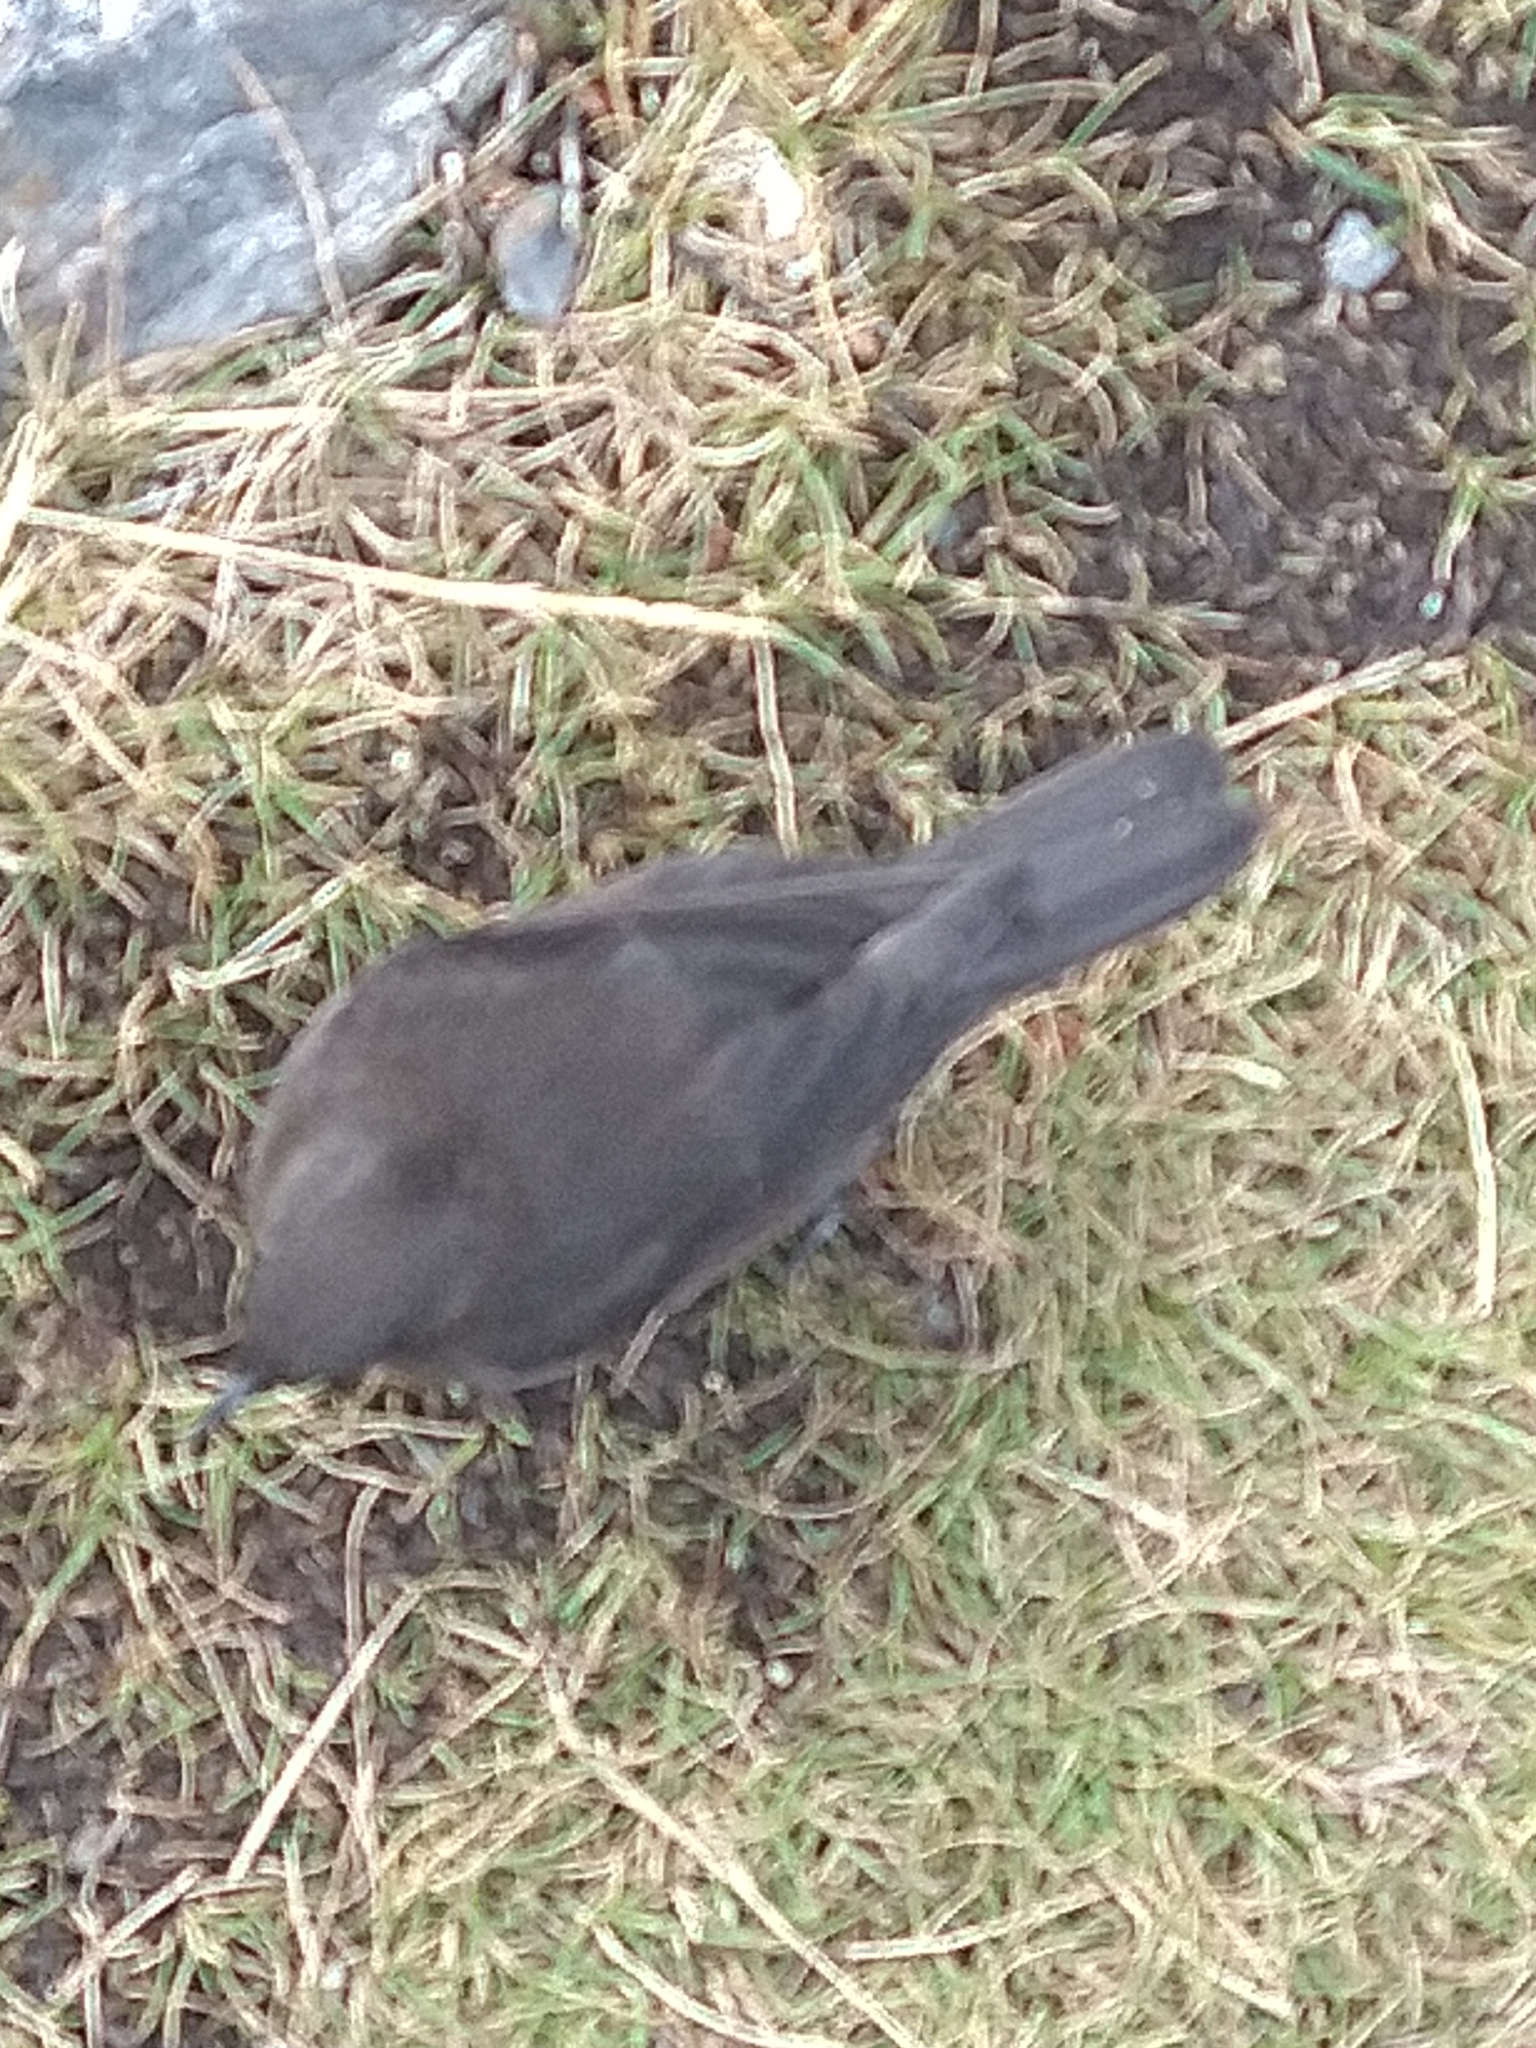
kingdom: Animalia
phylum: Chordata
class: Aves
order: Passeriformes
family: Furnariidae
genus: Cinclodes
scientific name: Cinclodes antarcticus
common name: Blackish cinclodes
